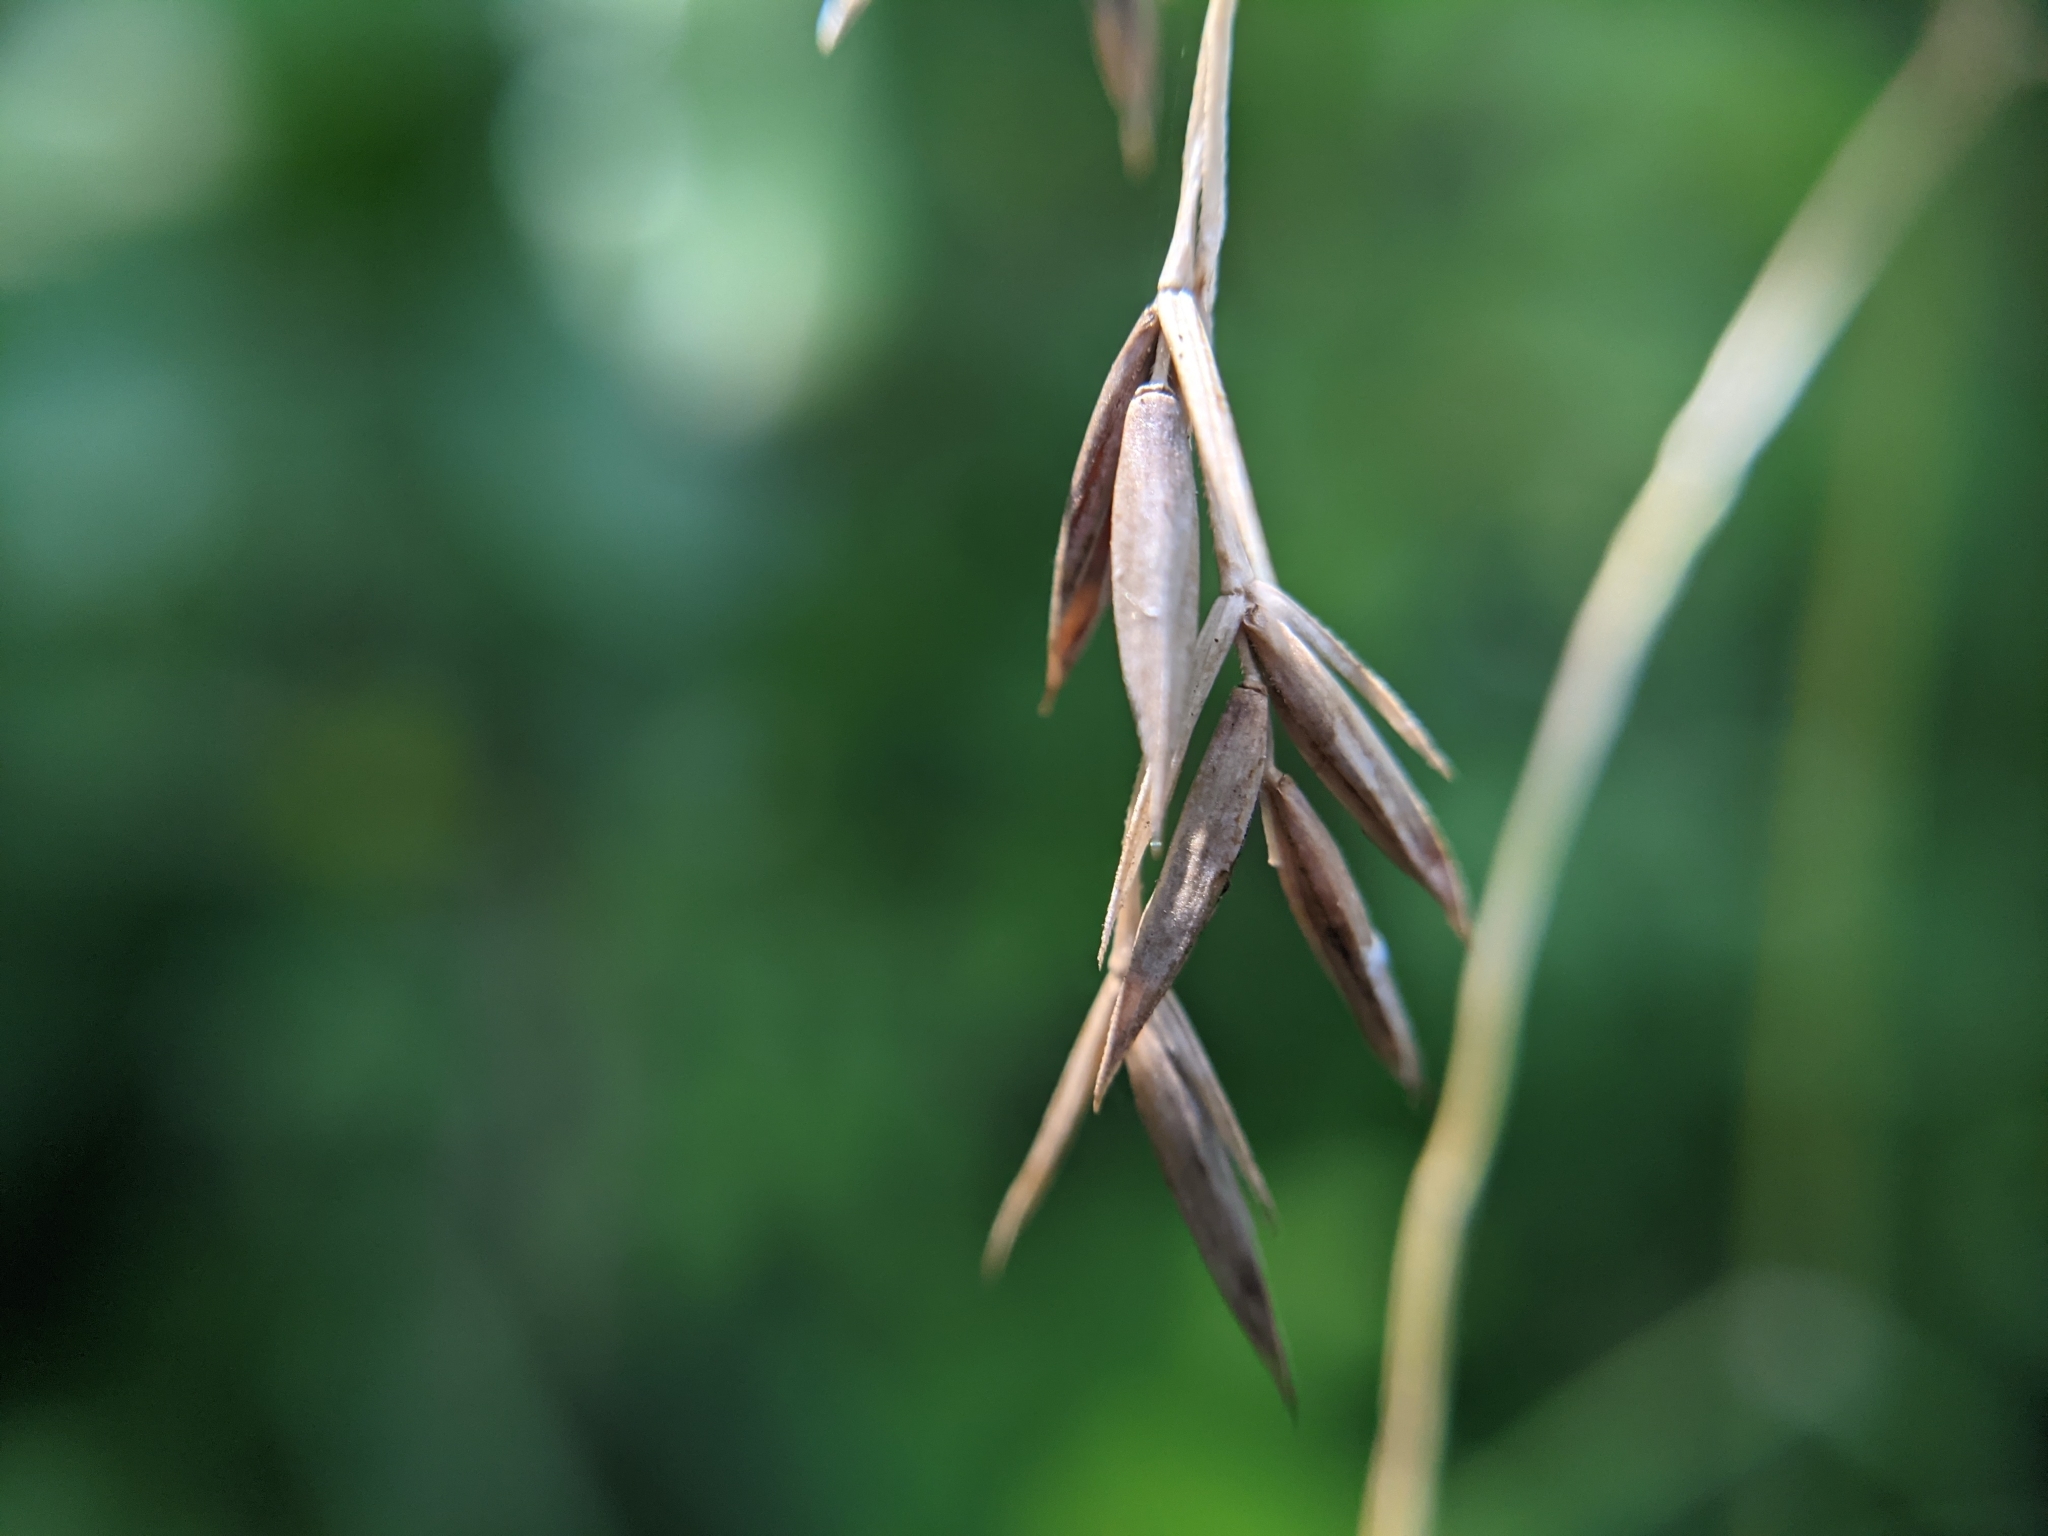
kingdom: Plantae
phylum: Tracheophyta
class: Liliopsida
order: Poales
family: Poaceae
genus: Festuca
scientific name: Festuca versuta
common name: Texas fescue
